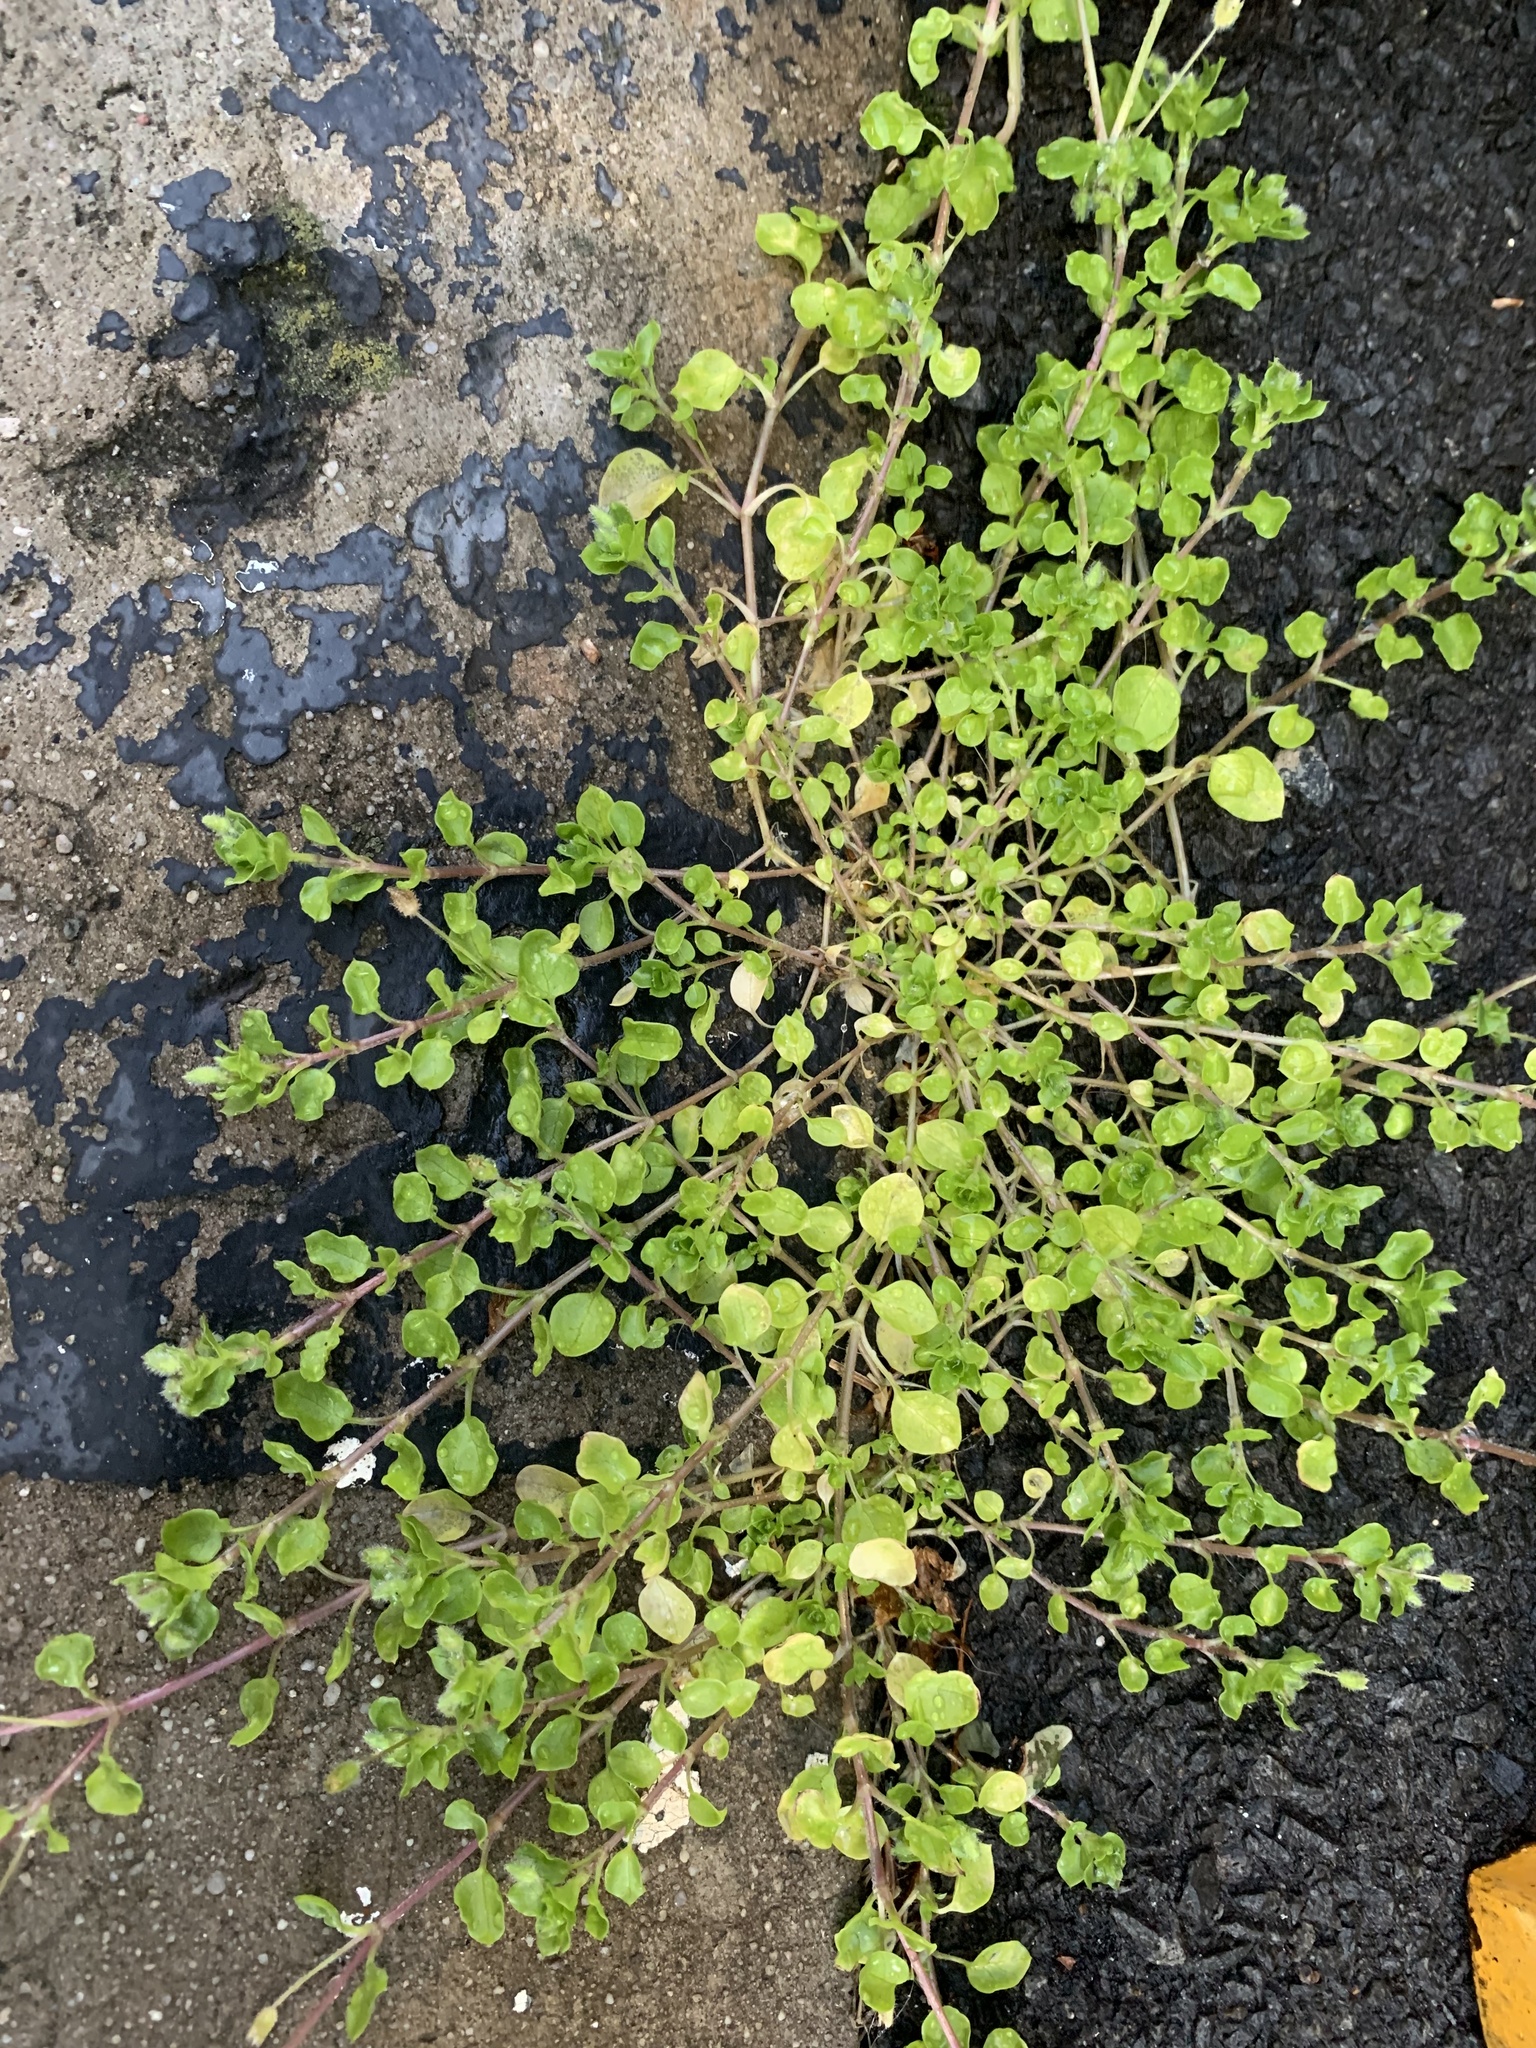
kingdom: Plantae
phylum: Tracheophyta
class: Magnoliopsida
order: Caryophyllales
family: Caryophyllaceae
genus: Stellaria
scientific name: Stellaria media
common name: Common chickweed
